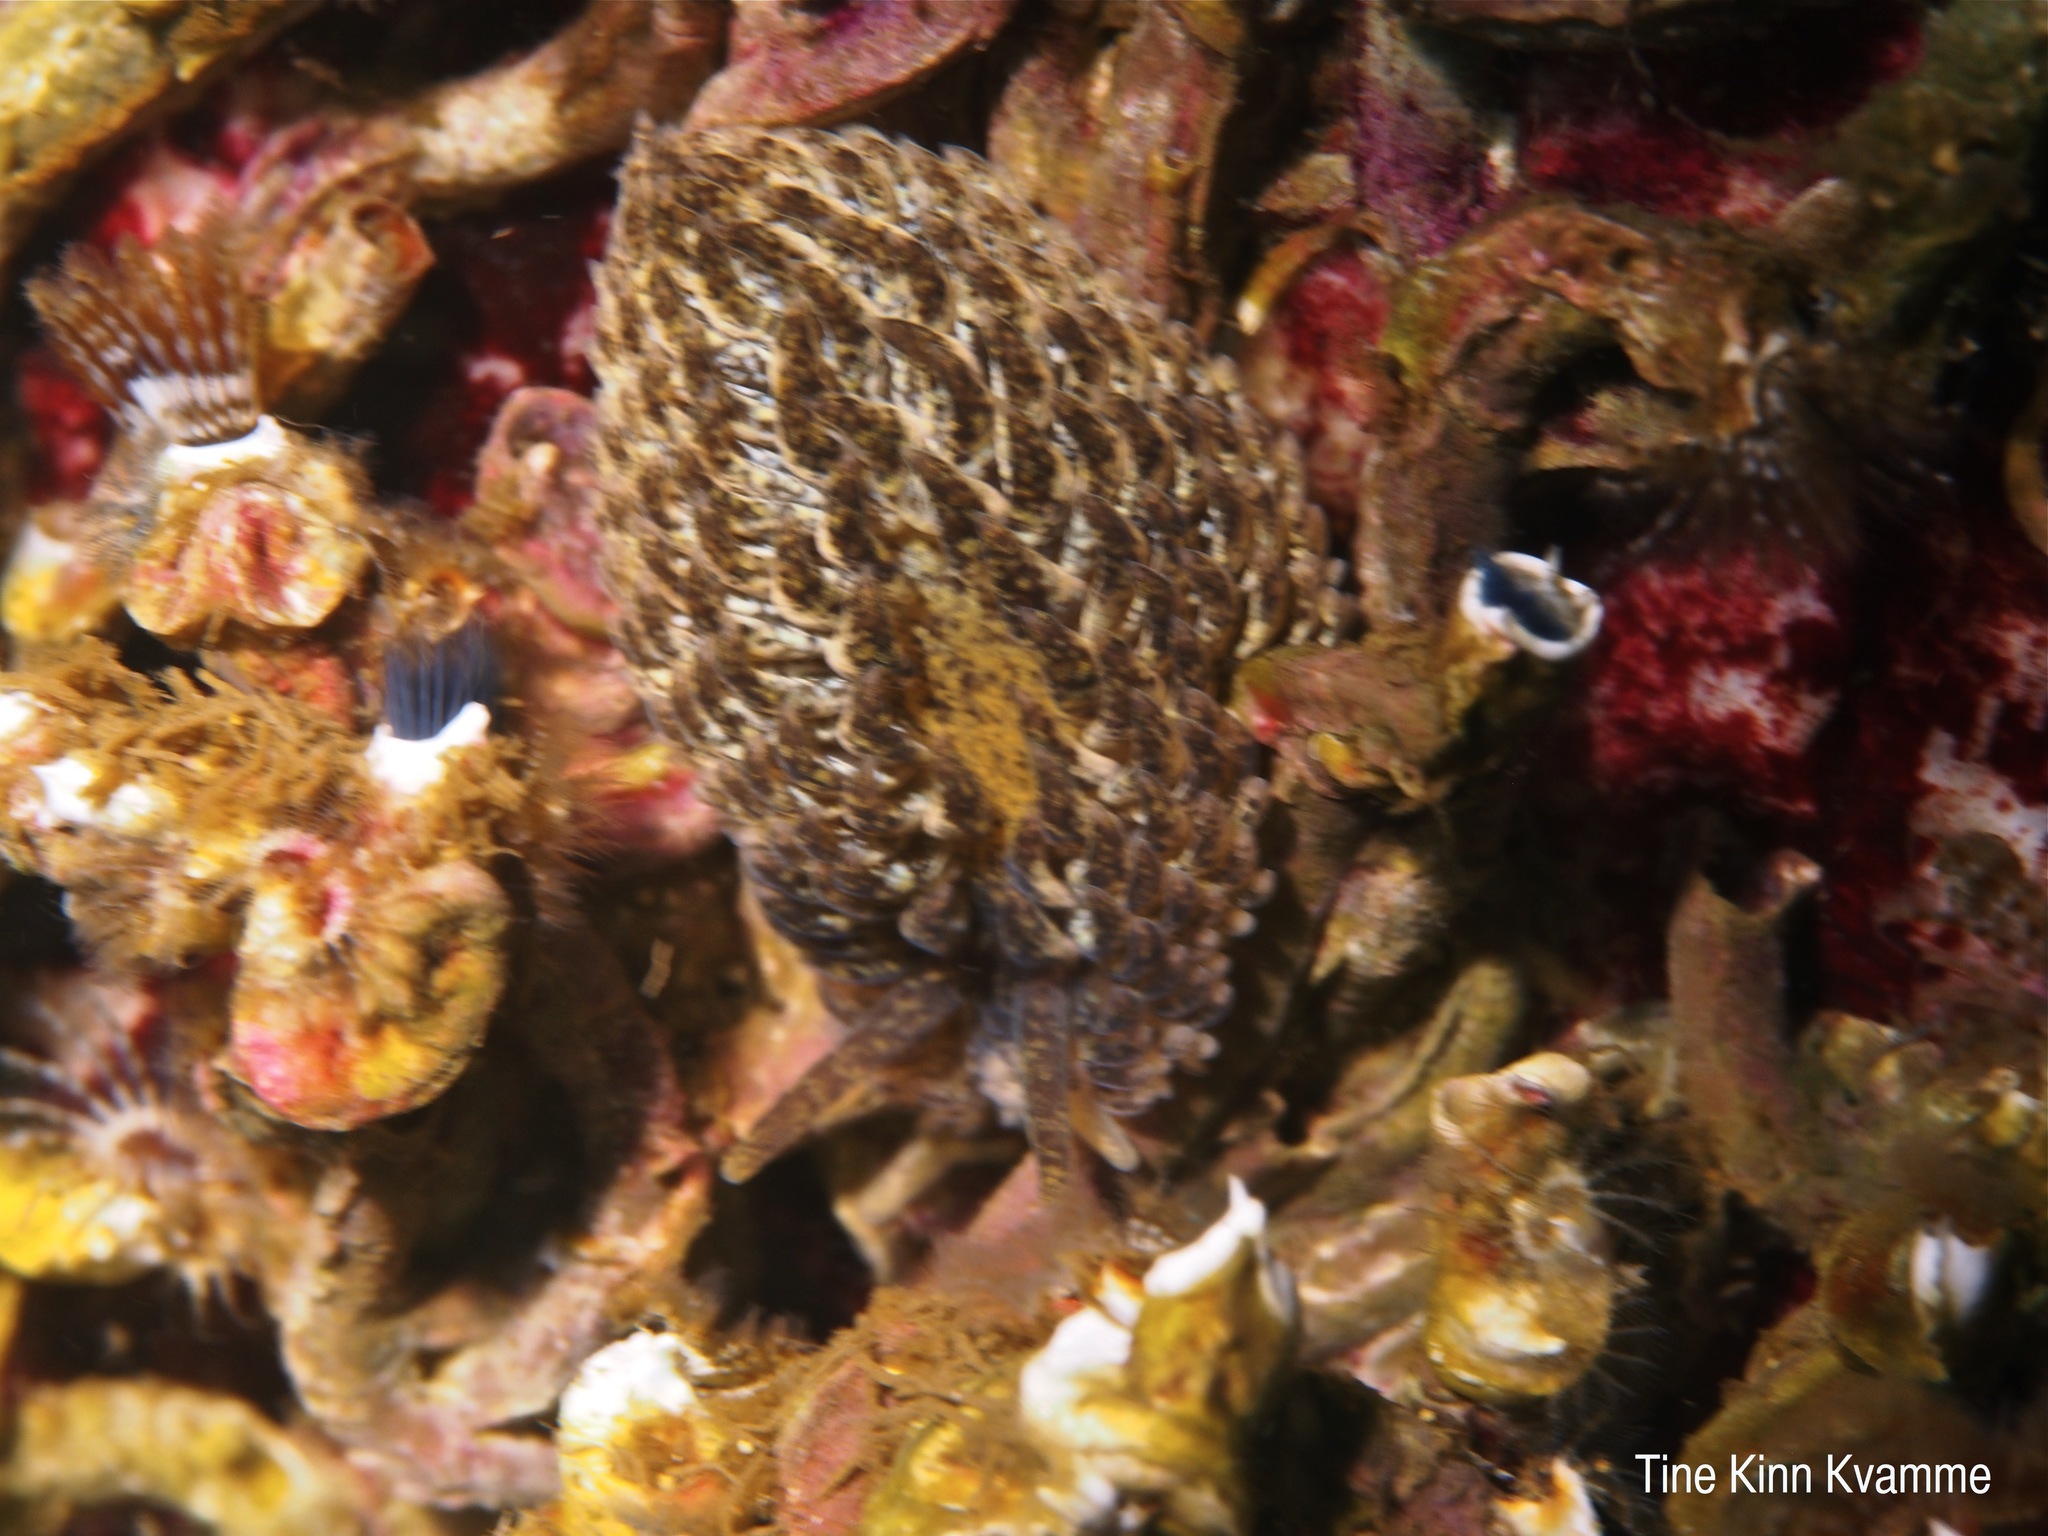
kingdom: Animalia
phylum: Mollusca
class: Gastropoda
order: Nudibranchia
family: Aeolidiidae
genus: Aeolidia
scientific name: Aeolidia papillosa
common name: Common grey sea slug
